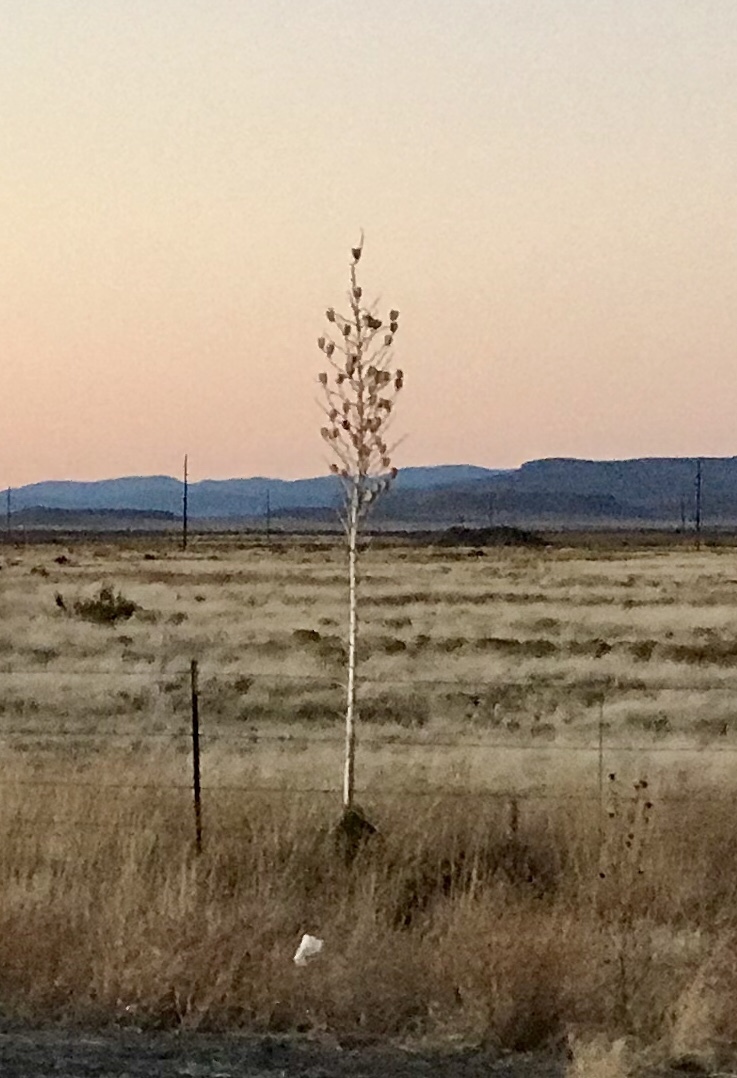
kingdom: Plantae
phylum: Tracheophyta
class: Liliopsida
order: Asparagales
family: Asparagaceae
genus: Yucca
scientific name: Yucca elata
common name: Palmella
